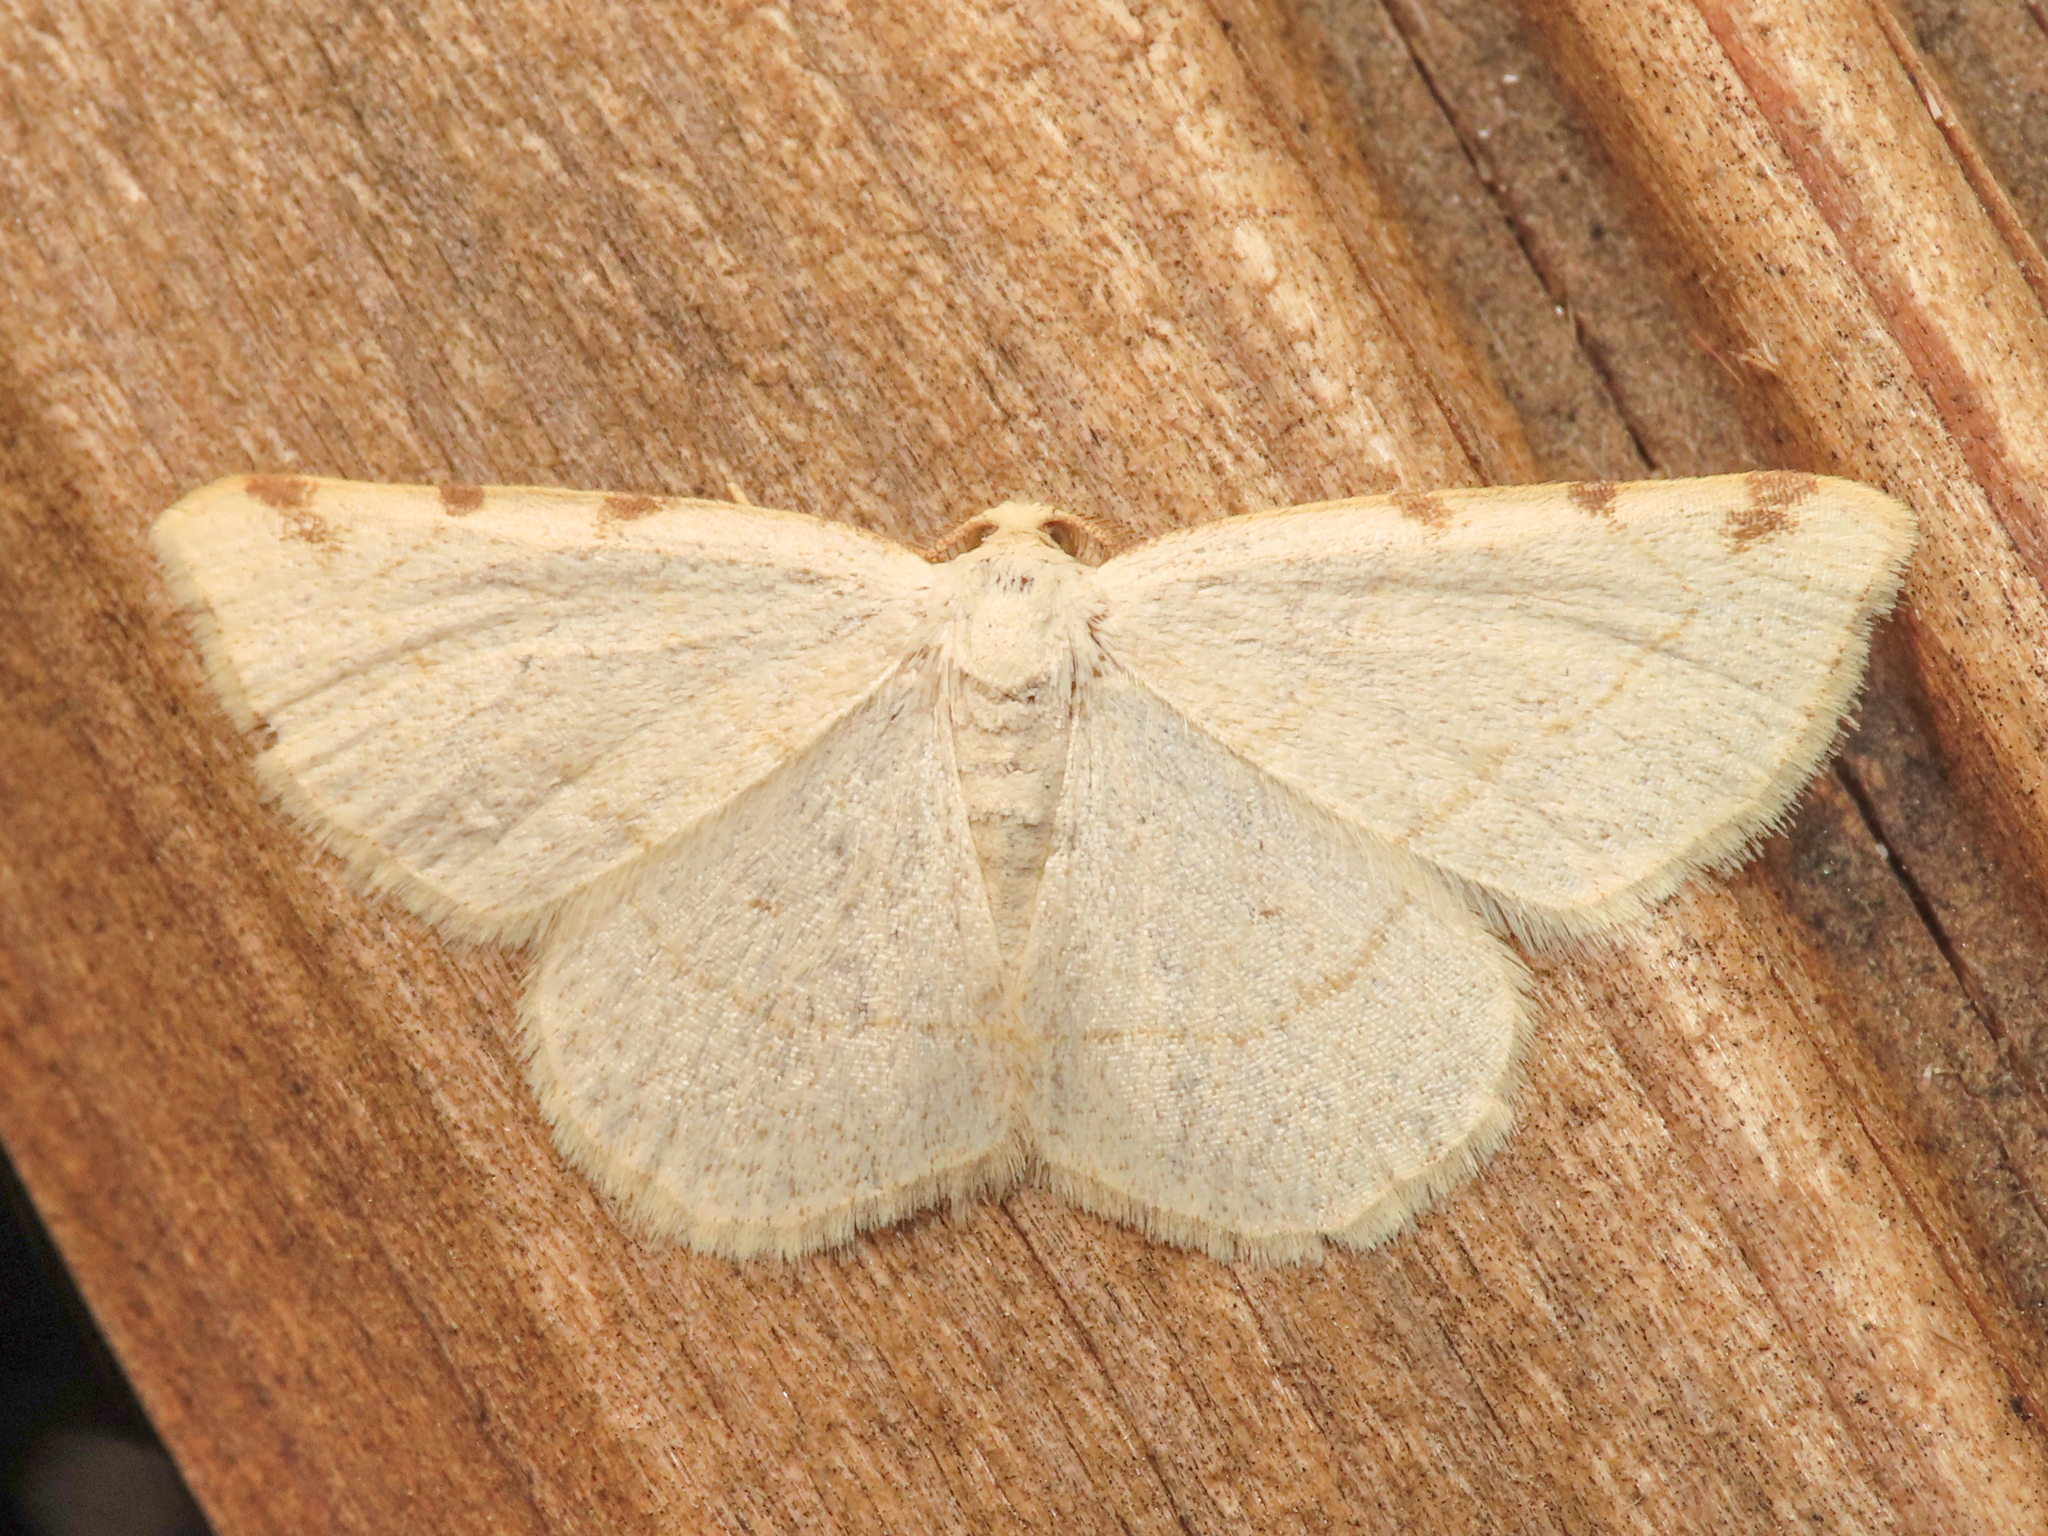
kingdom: Animalia
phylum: Arthropoda
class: Insecta
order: Lepidoptera
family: Geometridae
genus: Stegania
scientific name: Stegania trimaculata
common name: Dorset cream wave
